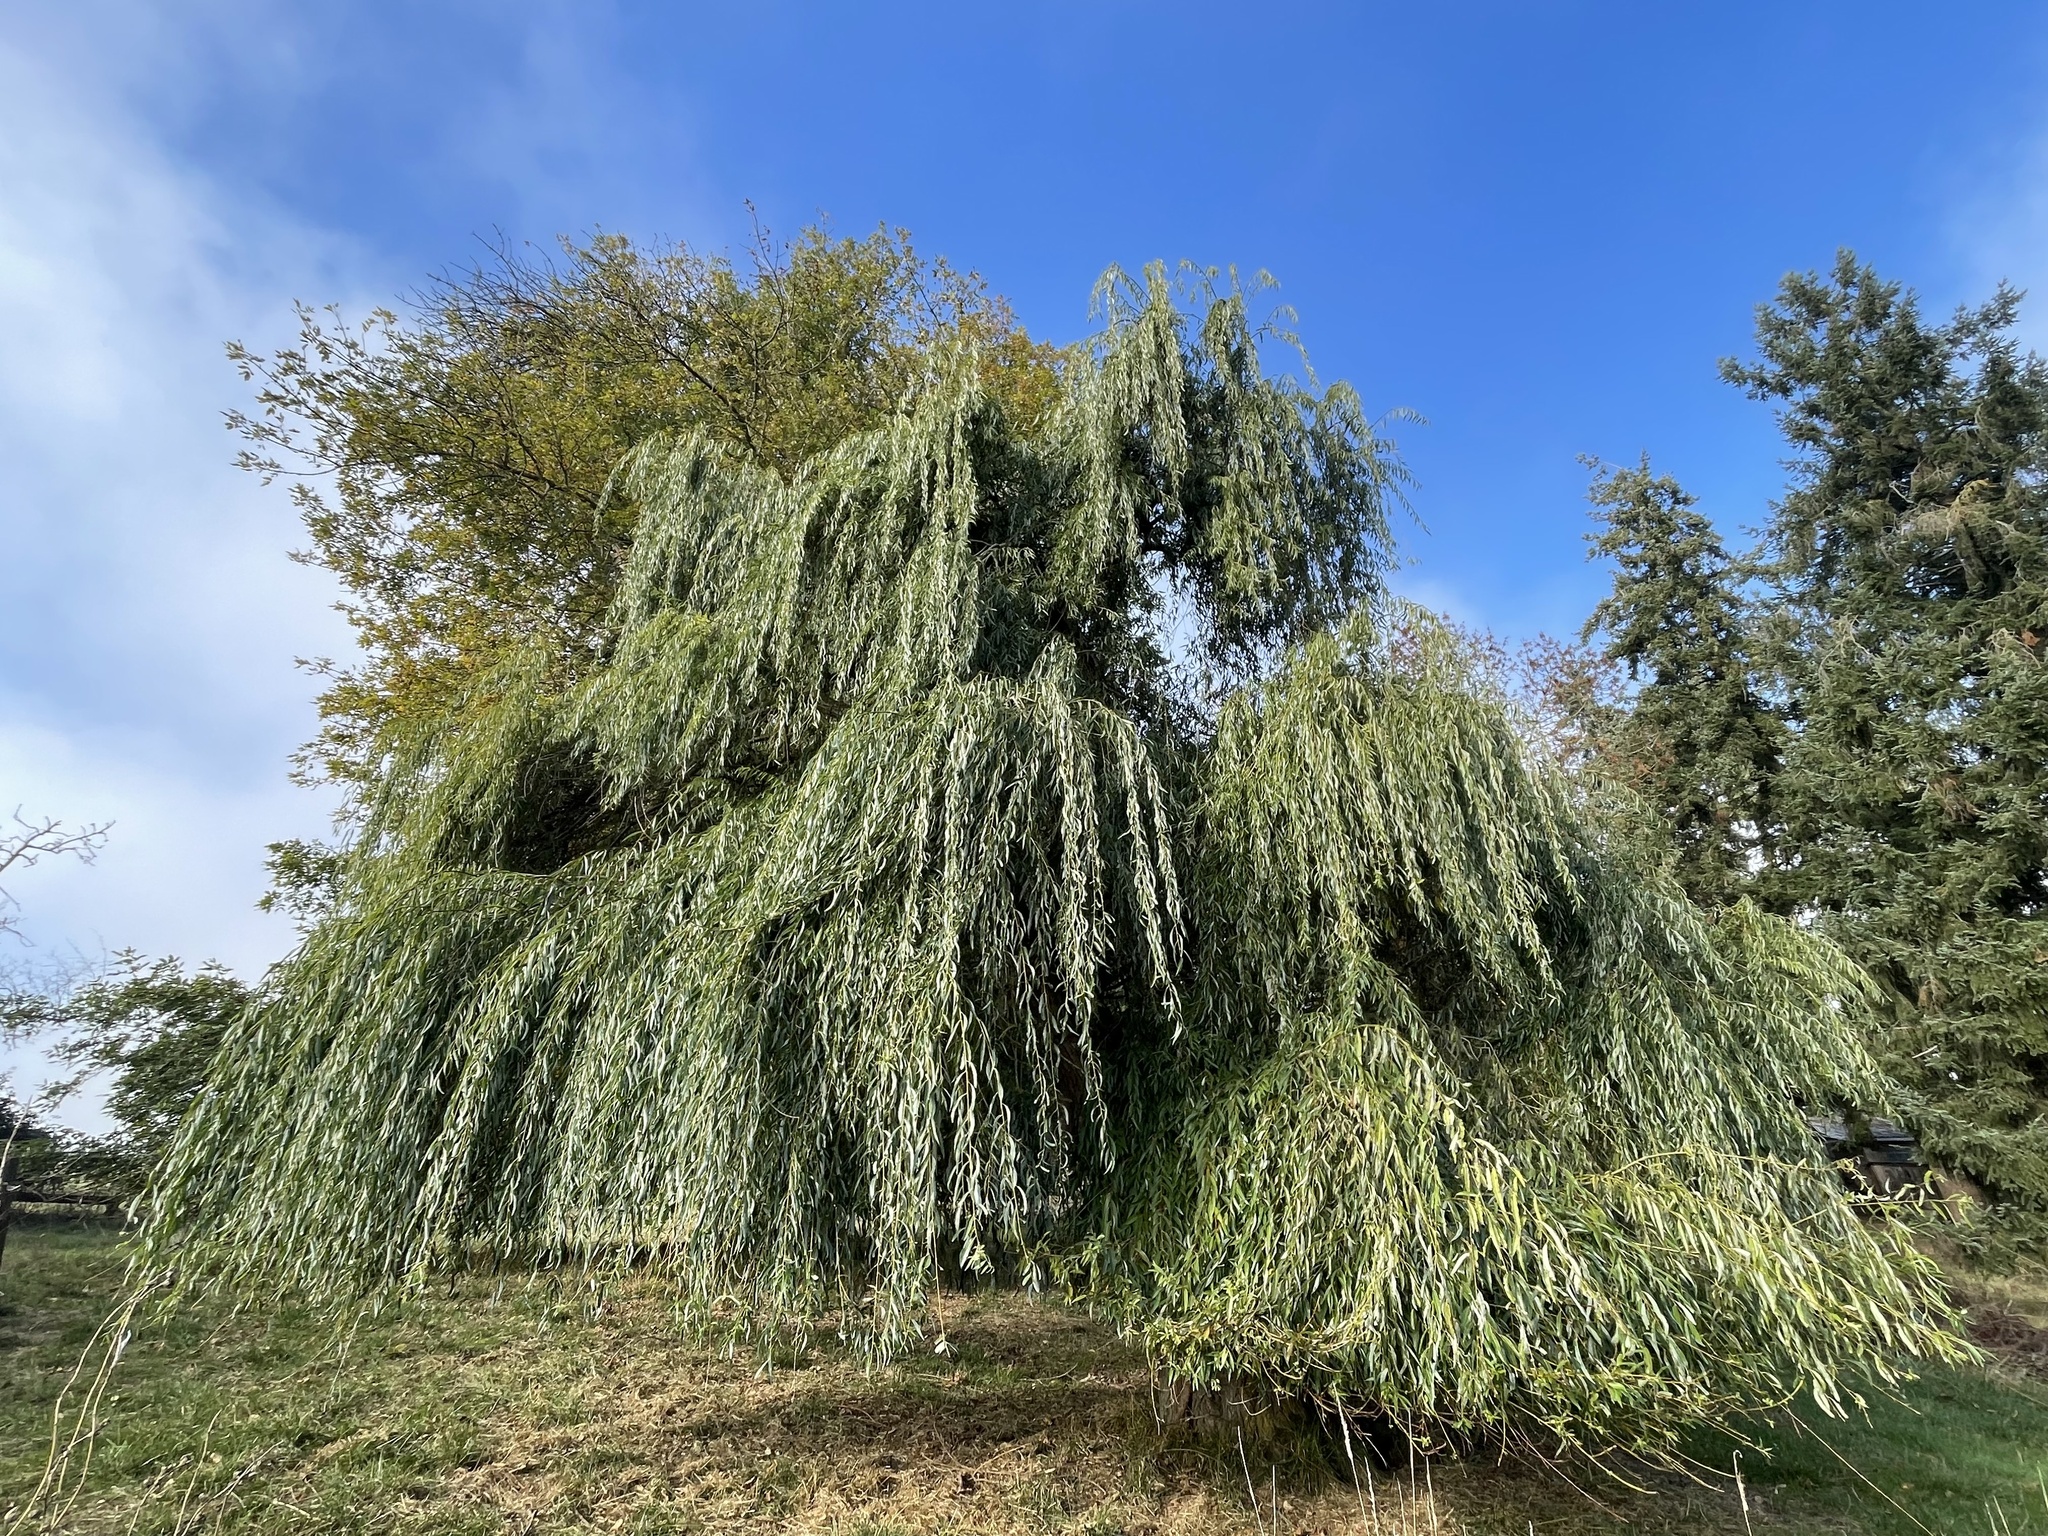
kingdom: Plantae
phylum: Tracheophyta
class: Magnoliopsida
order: Malpighiales
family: Salicaceae
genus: Salix
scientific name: Salix babylonica
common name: Weeping willow
